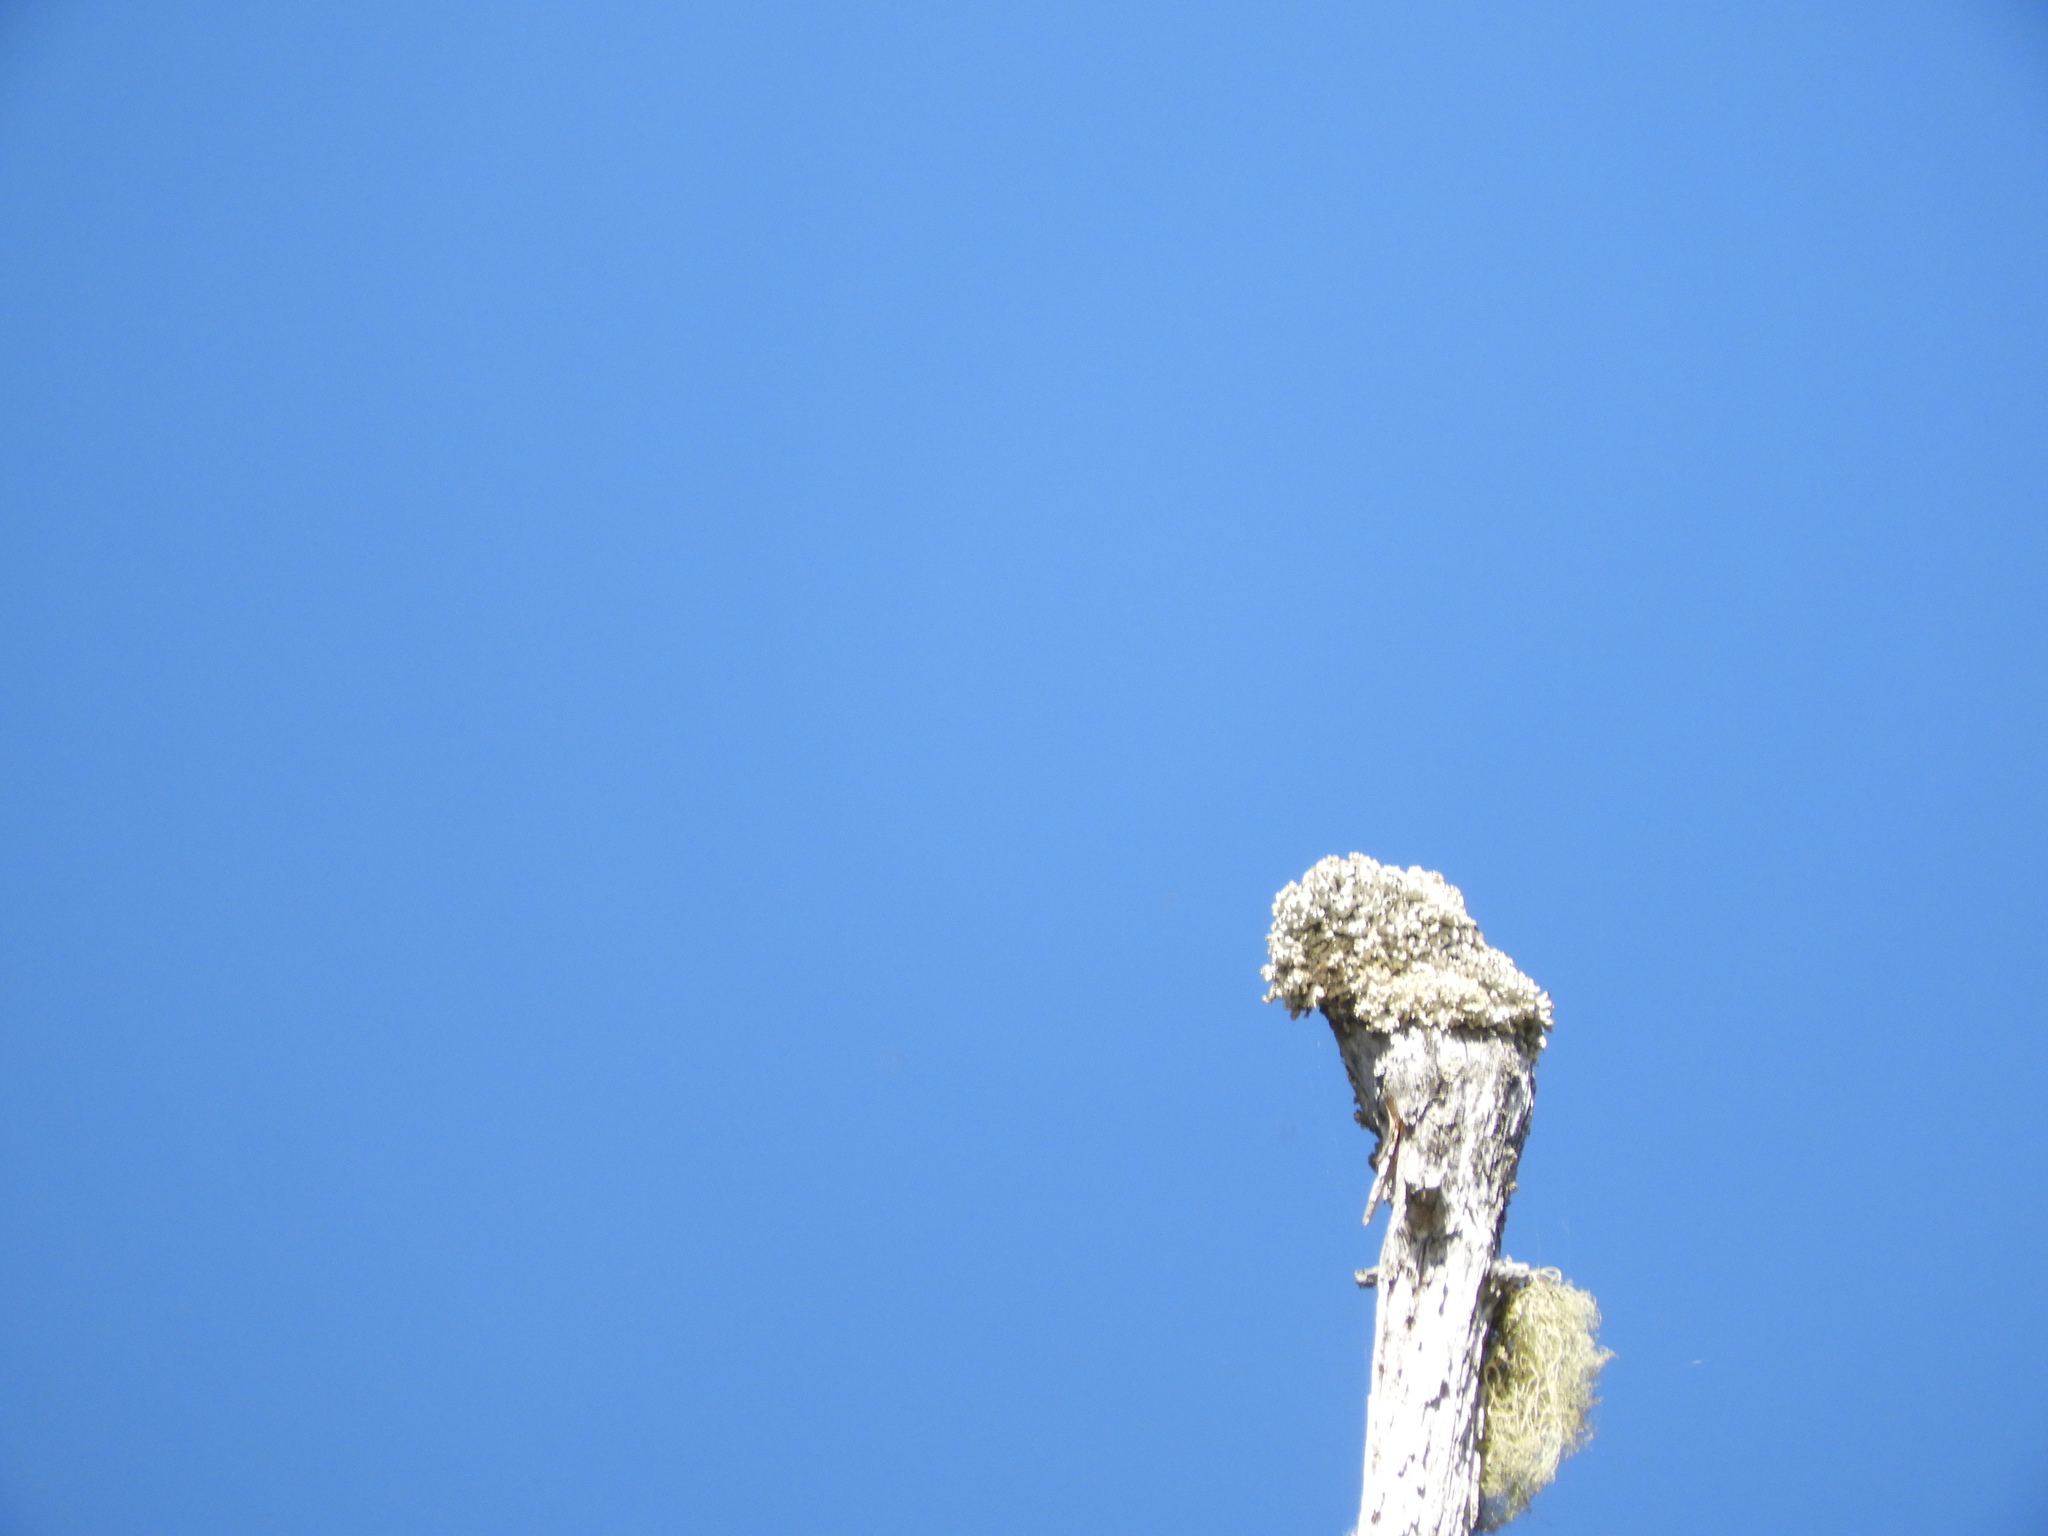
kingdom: Fungi
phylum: Ascomycota
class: Lecanoromycetes
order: Caliciales
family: Caliciaceae
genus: Acroscyphus
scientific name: Acroscyphus sphaerophoroides
